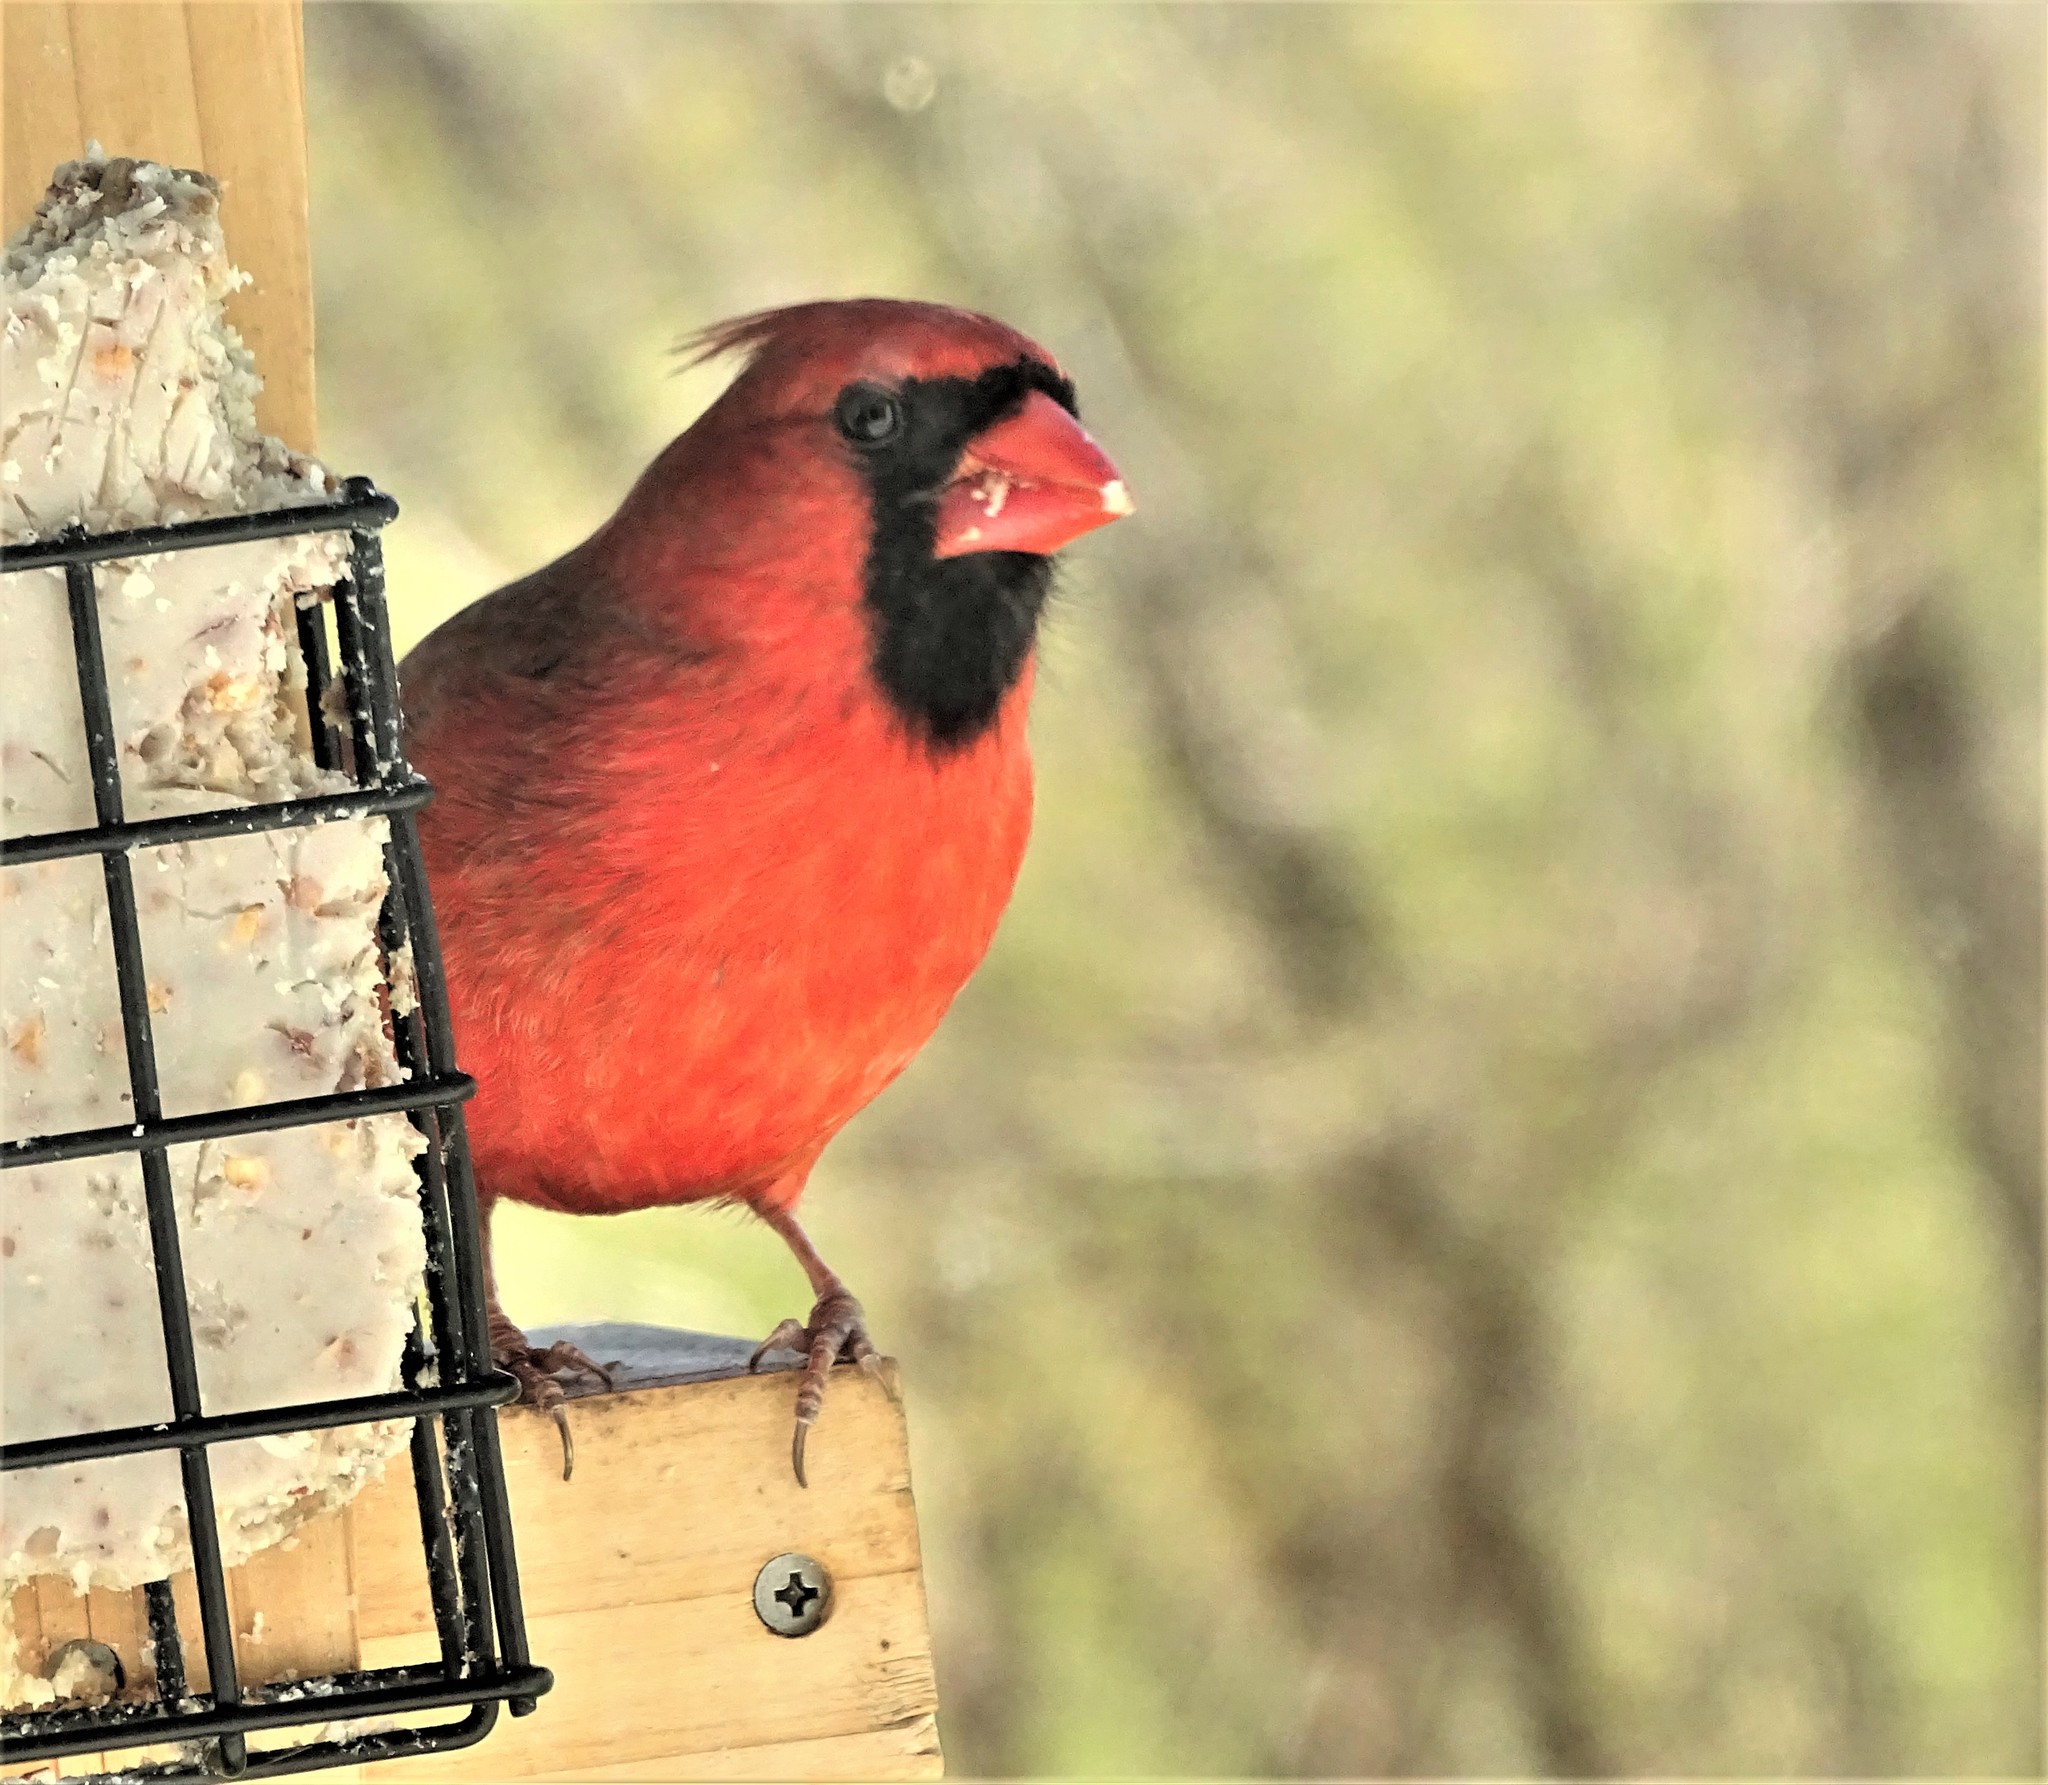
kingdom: Animalia
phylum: Chordata
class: Aves
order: Passeriformes
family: Cardinalidae
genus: Cardinalis
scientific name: Cardinalis cardinalis
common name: Northern cardinal
